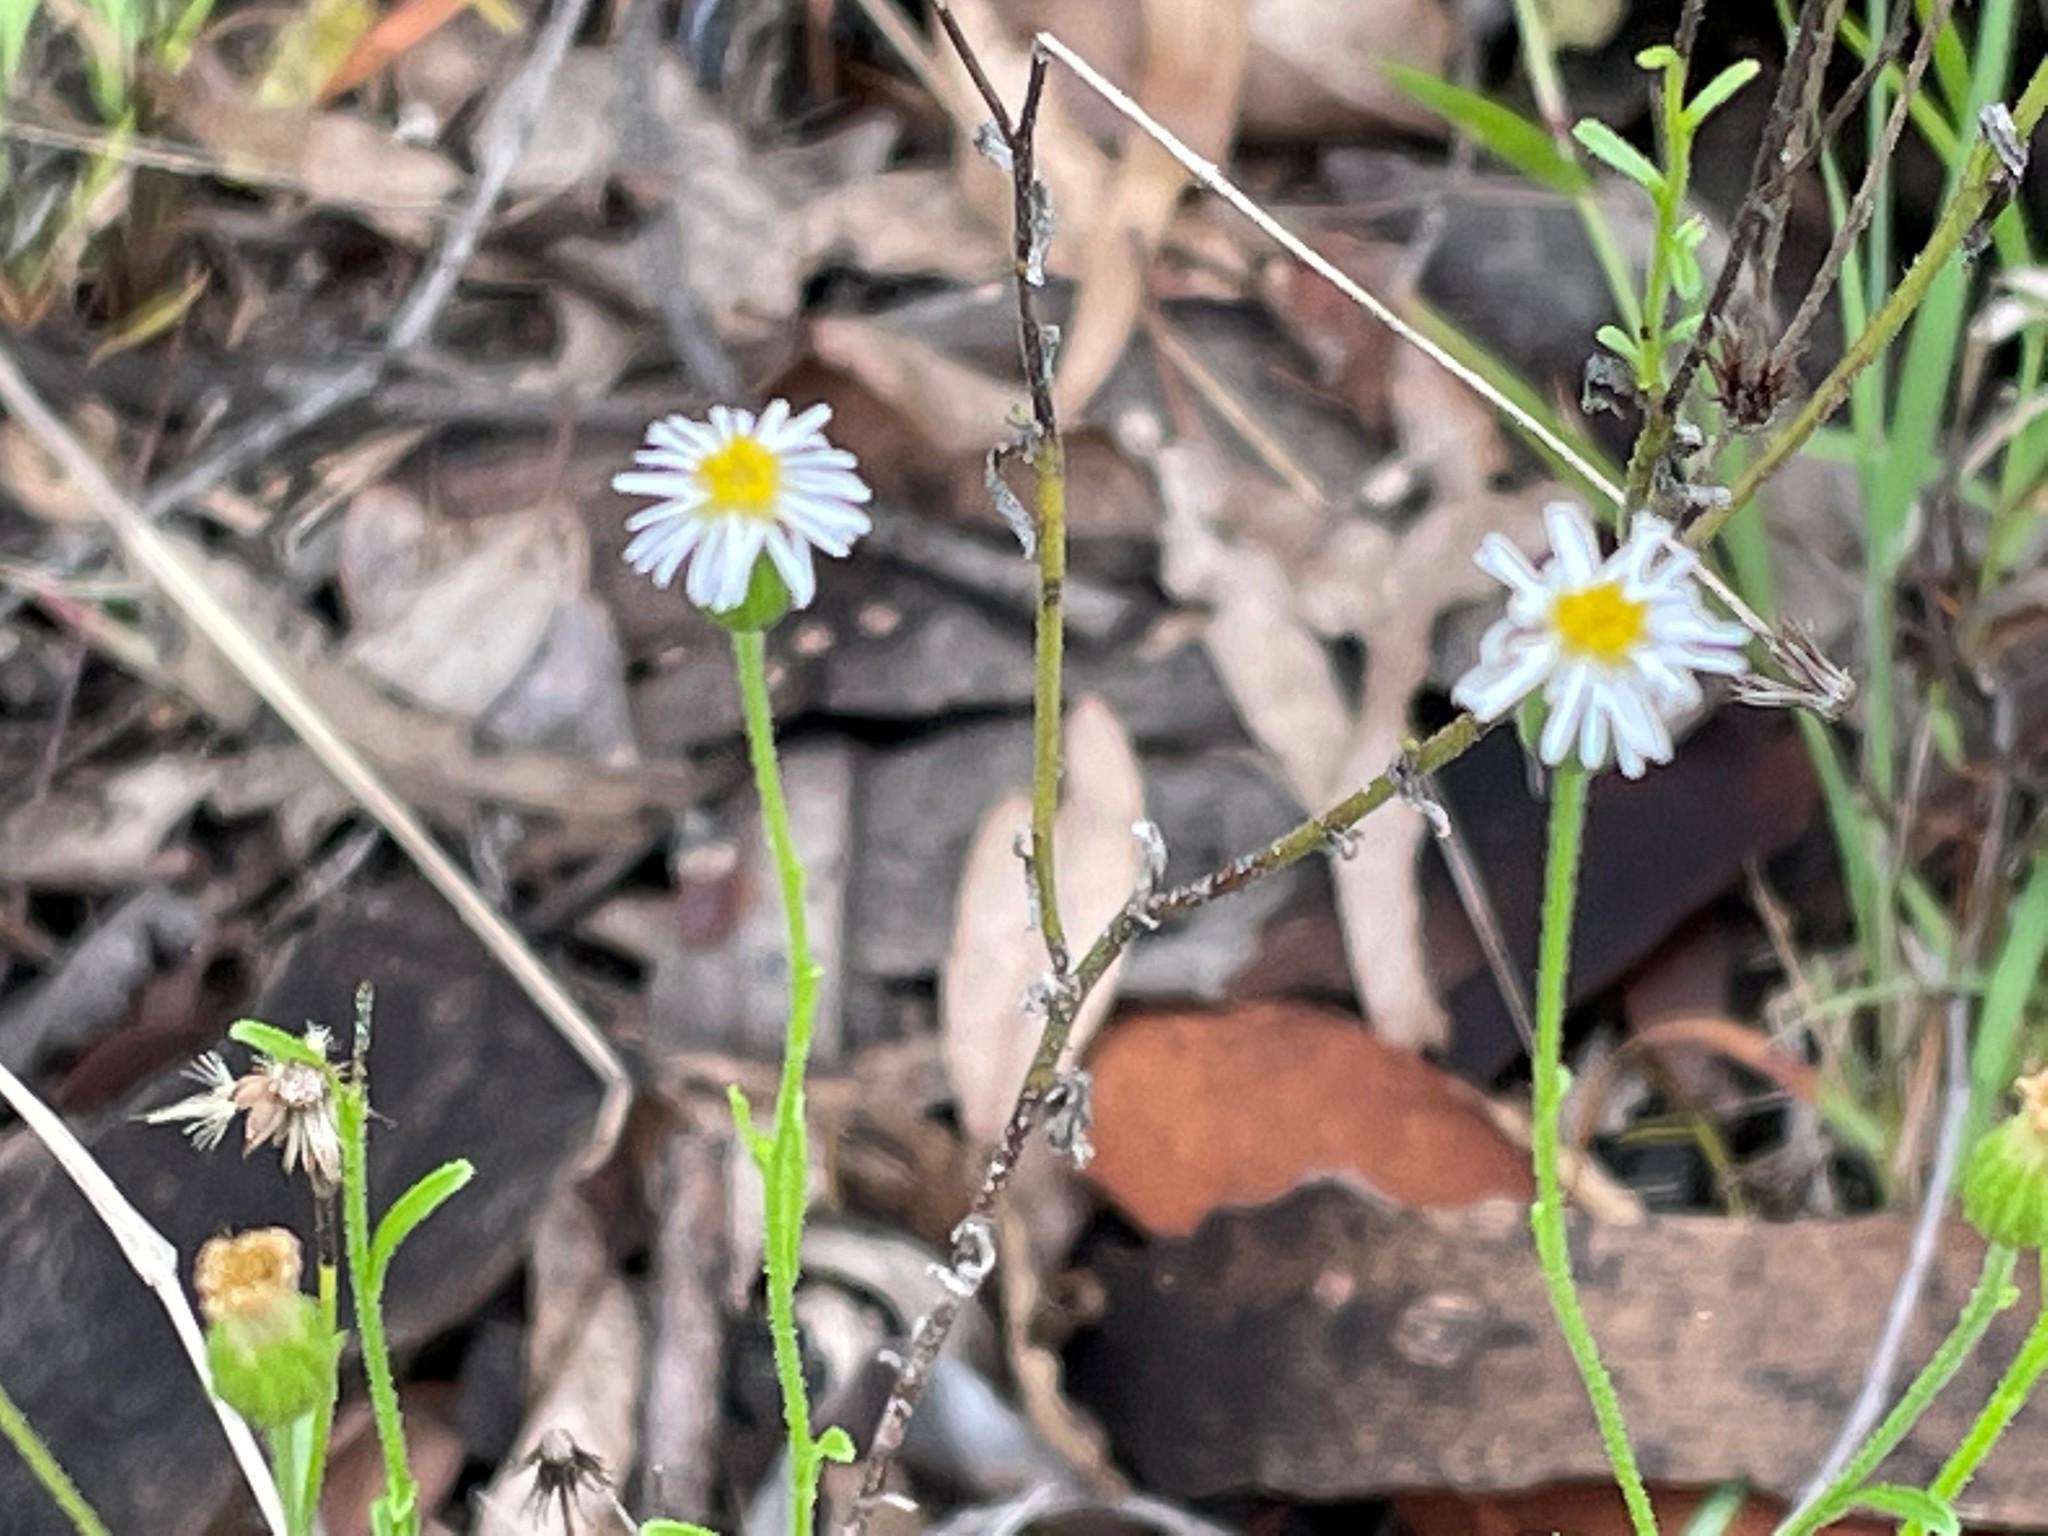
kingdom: Plantae
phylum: Tracheophyta
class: Magnoliopsida
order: Asterales
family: Asteraceae
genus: Calotis
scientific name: Calotis dentex
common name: White bur-daisy
